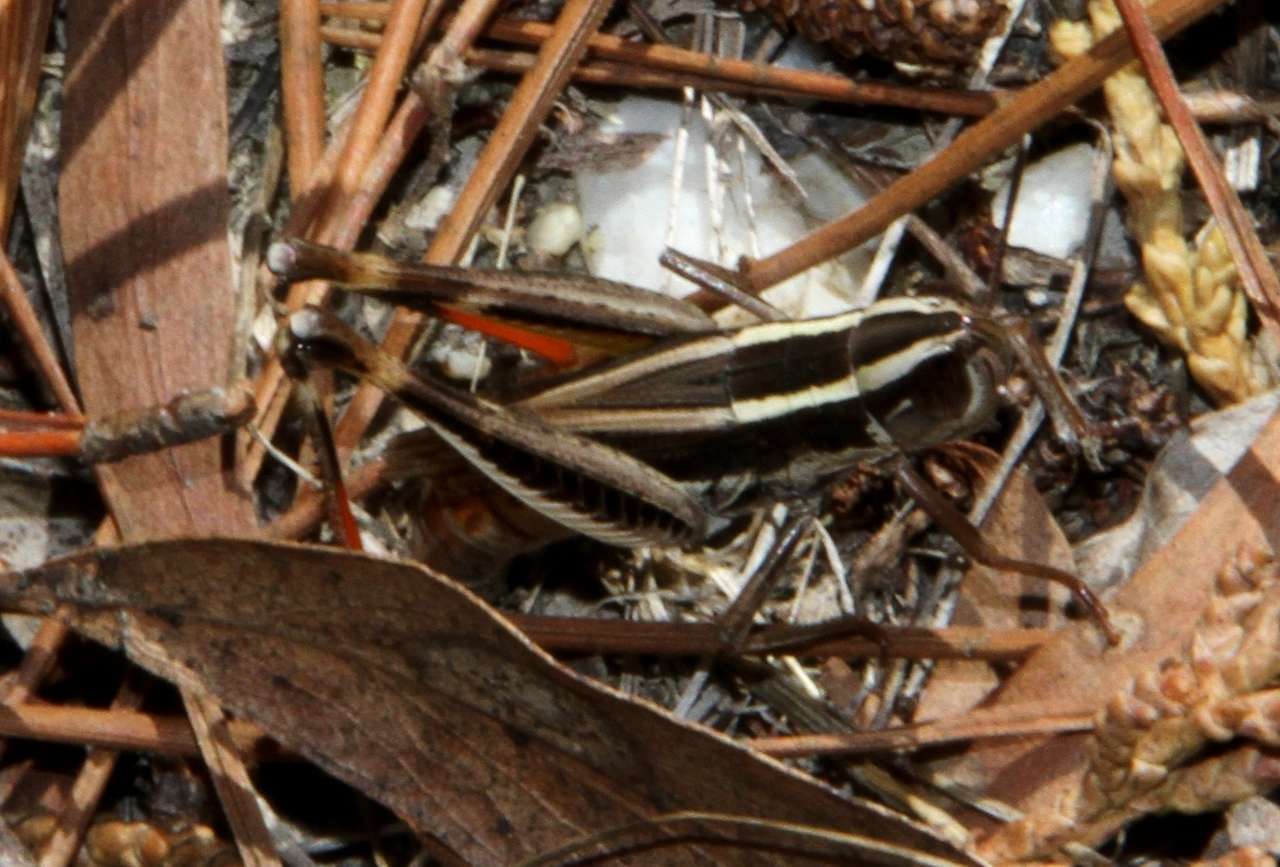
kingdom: Animalia
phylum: Arthropoda
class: Insecta
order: Orthoptera
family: Acrididae
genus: Macrotona
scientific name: Macrotona australis
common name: Common macrotona
